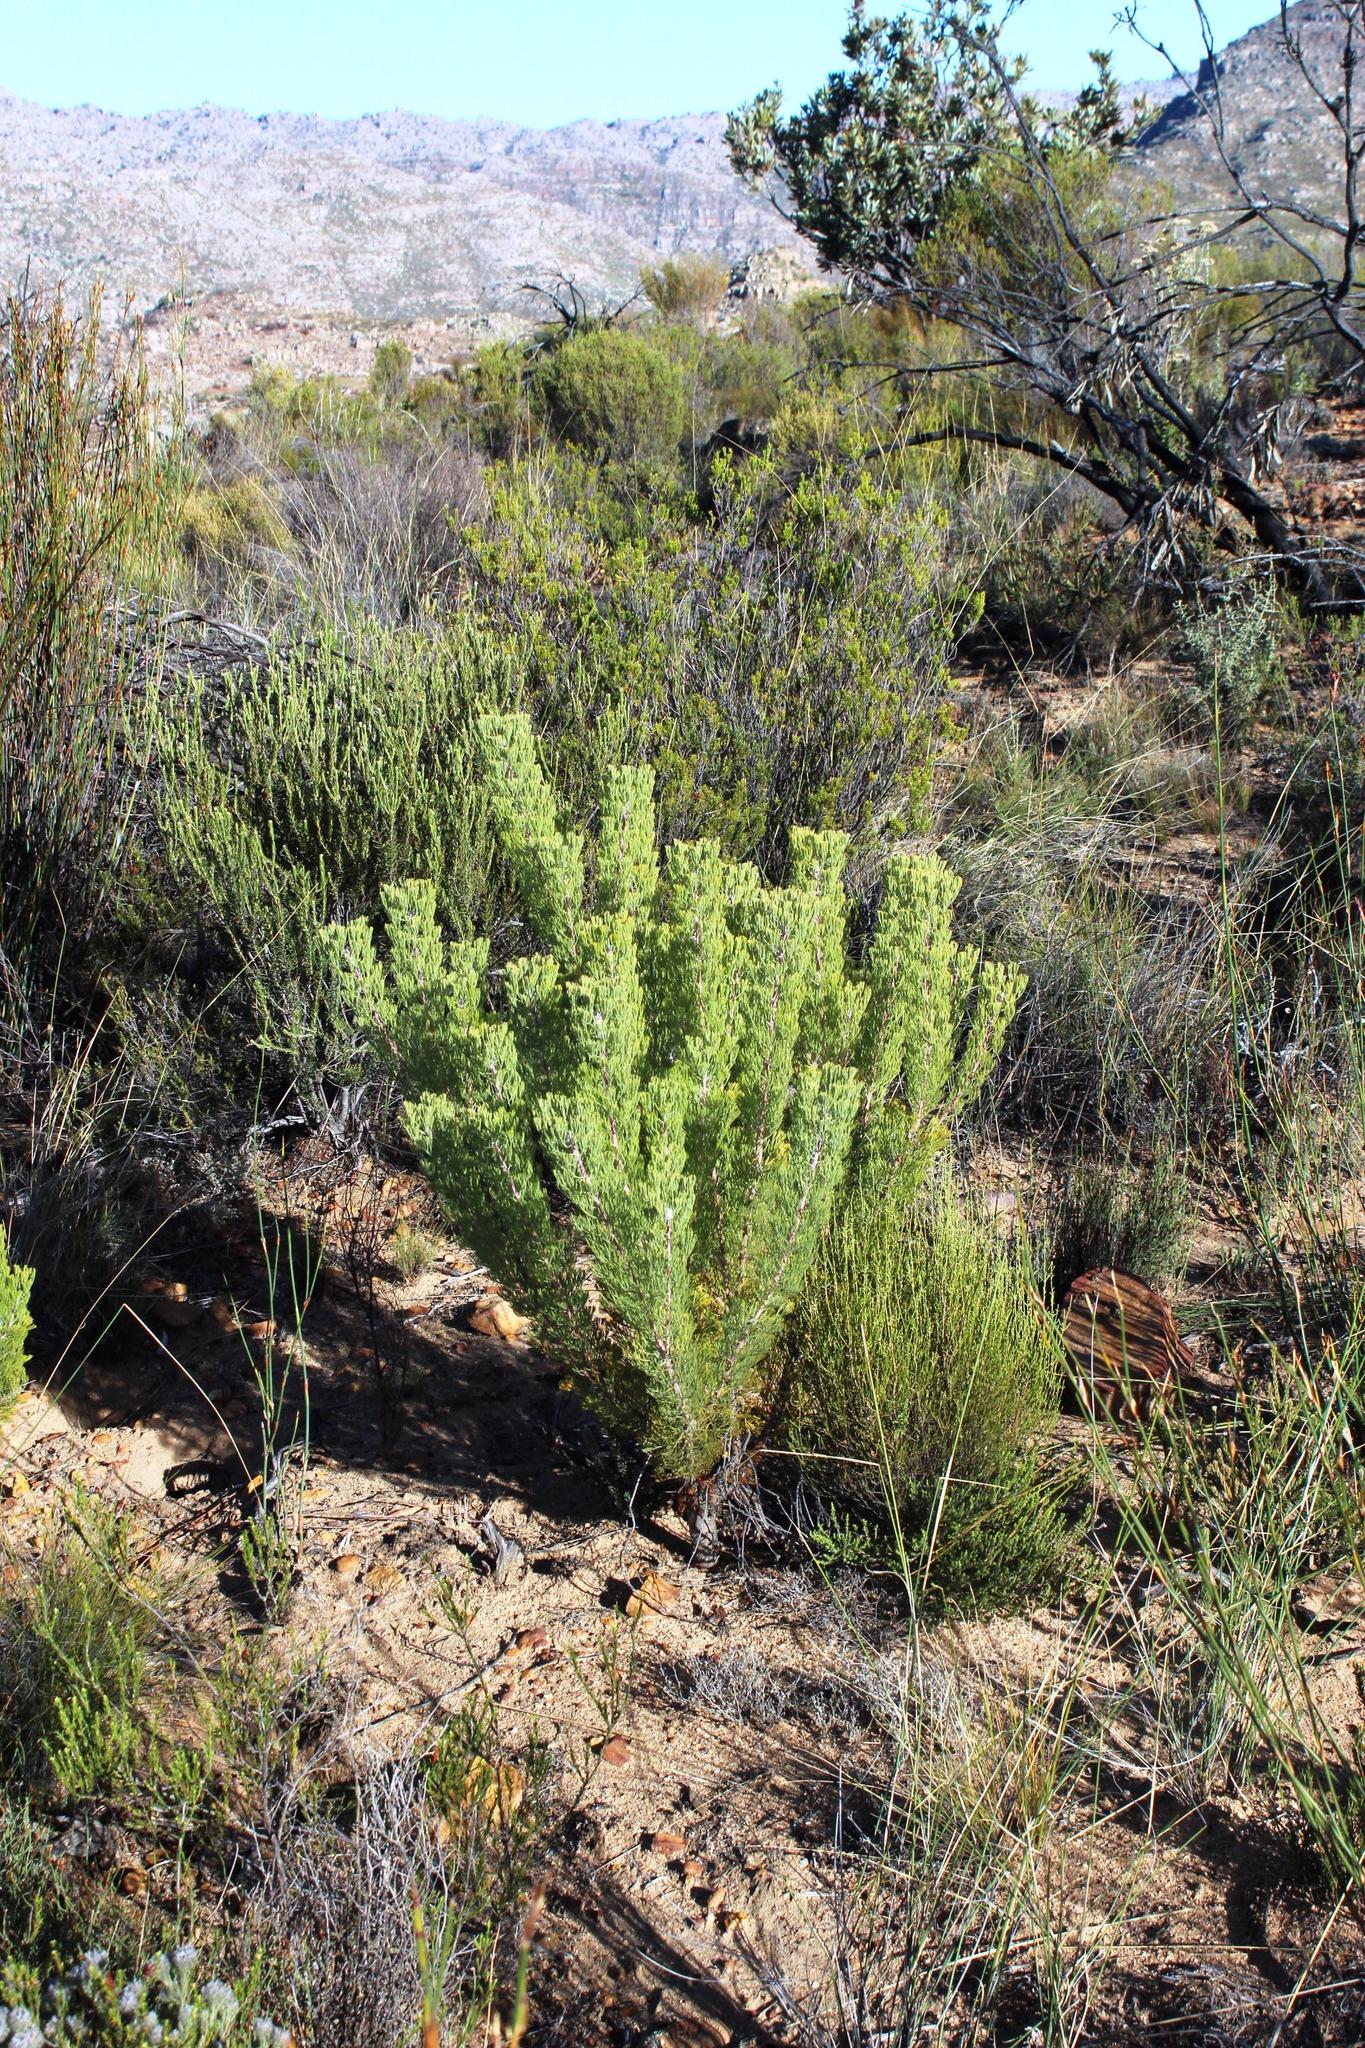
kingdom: Plantae
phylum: Tracheophyta
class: Magnoliopsida
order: Proteales
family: Proteaceae
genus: Paranomus
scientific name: Paranomus bracteolaris
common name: Bokkeveld tree sceptre
